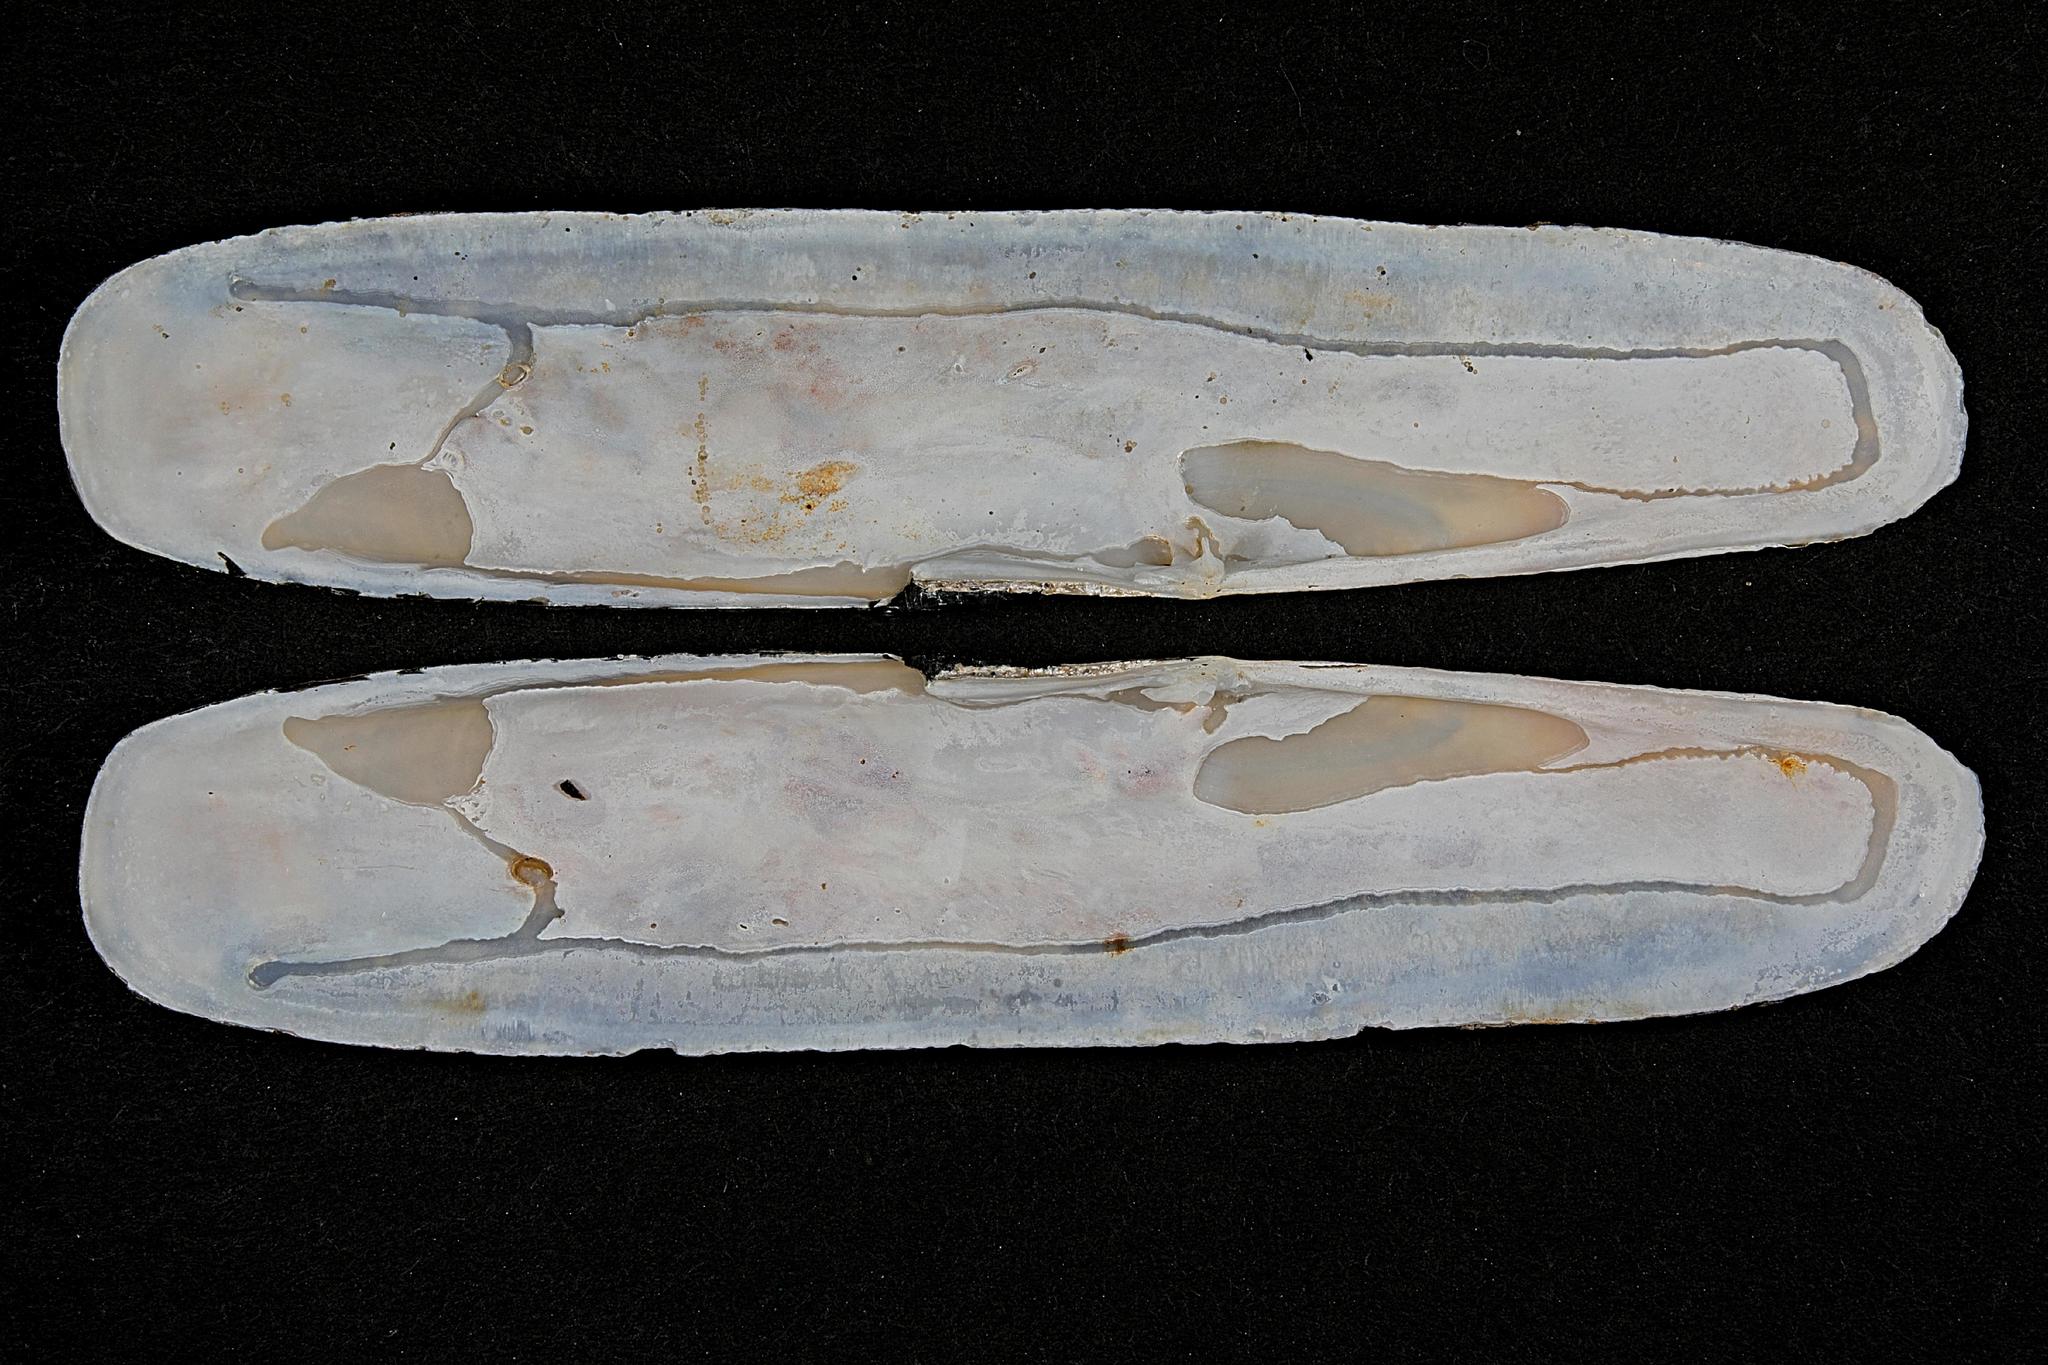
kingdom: Animalia
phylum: Mollusca
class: Bivalvia
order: Adapedonta
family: Pharidae
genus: Pharus
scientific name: Pharus legumen
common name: Bean razor clam
